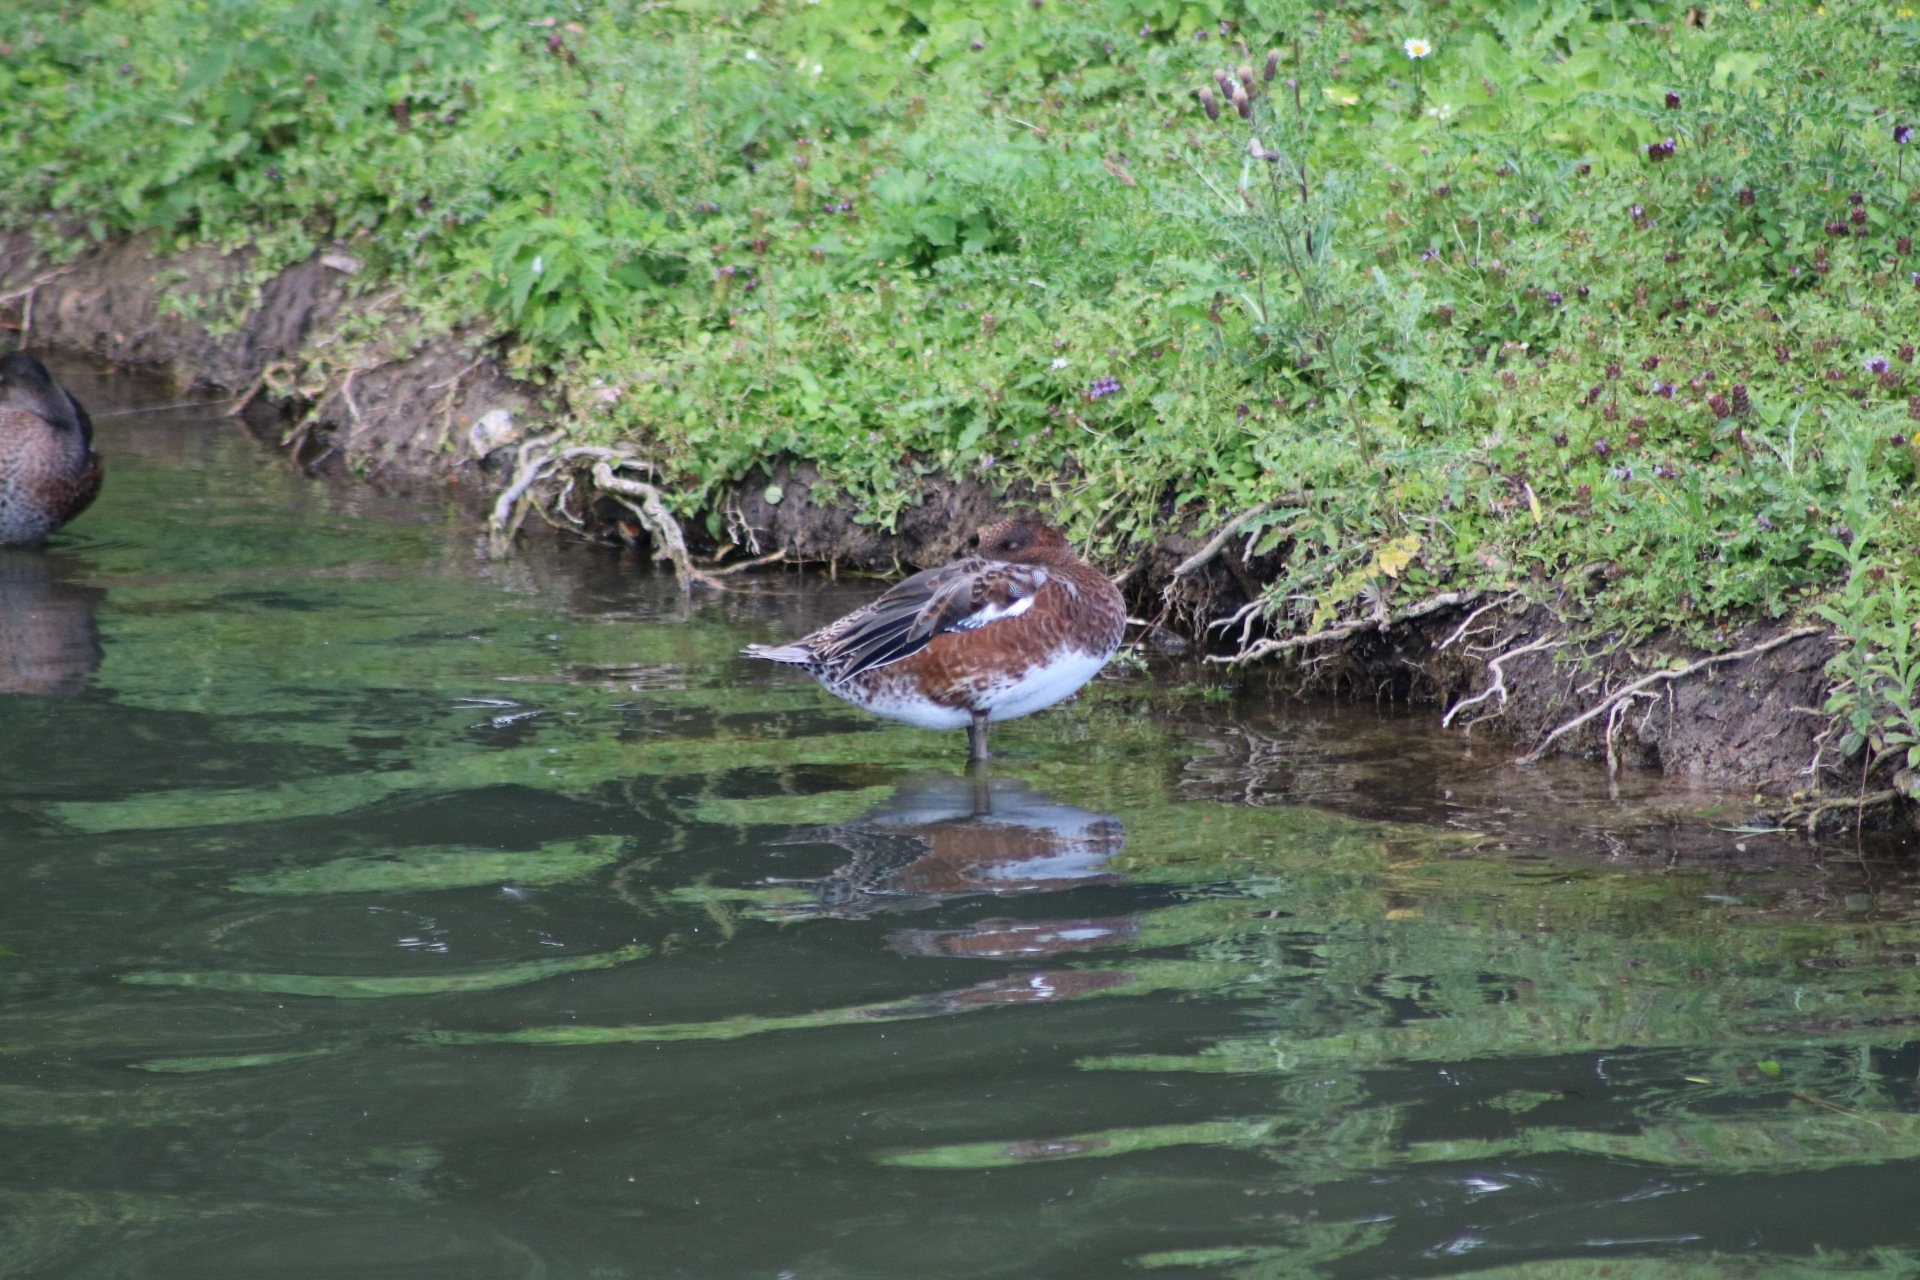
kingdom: Animalia
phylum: Chordata
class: Aves
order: Anseriformes
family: Anatidae
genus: Mareca
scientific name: Mareca penelope
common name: Eurasian wigeon
